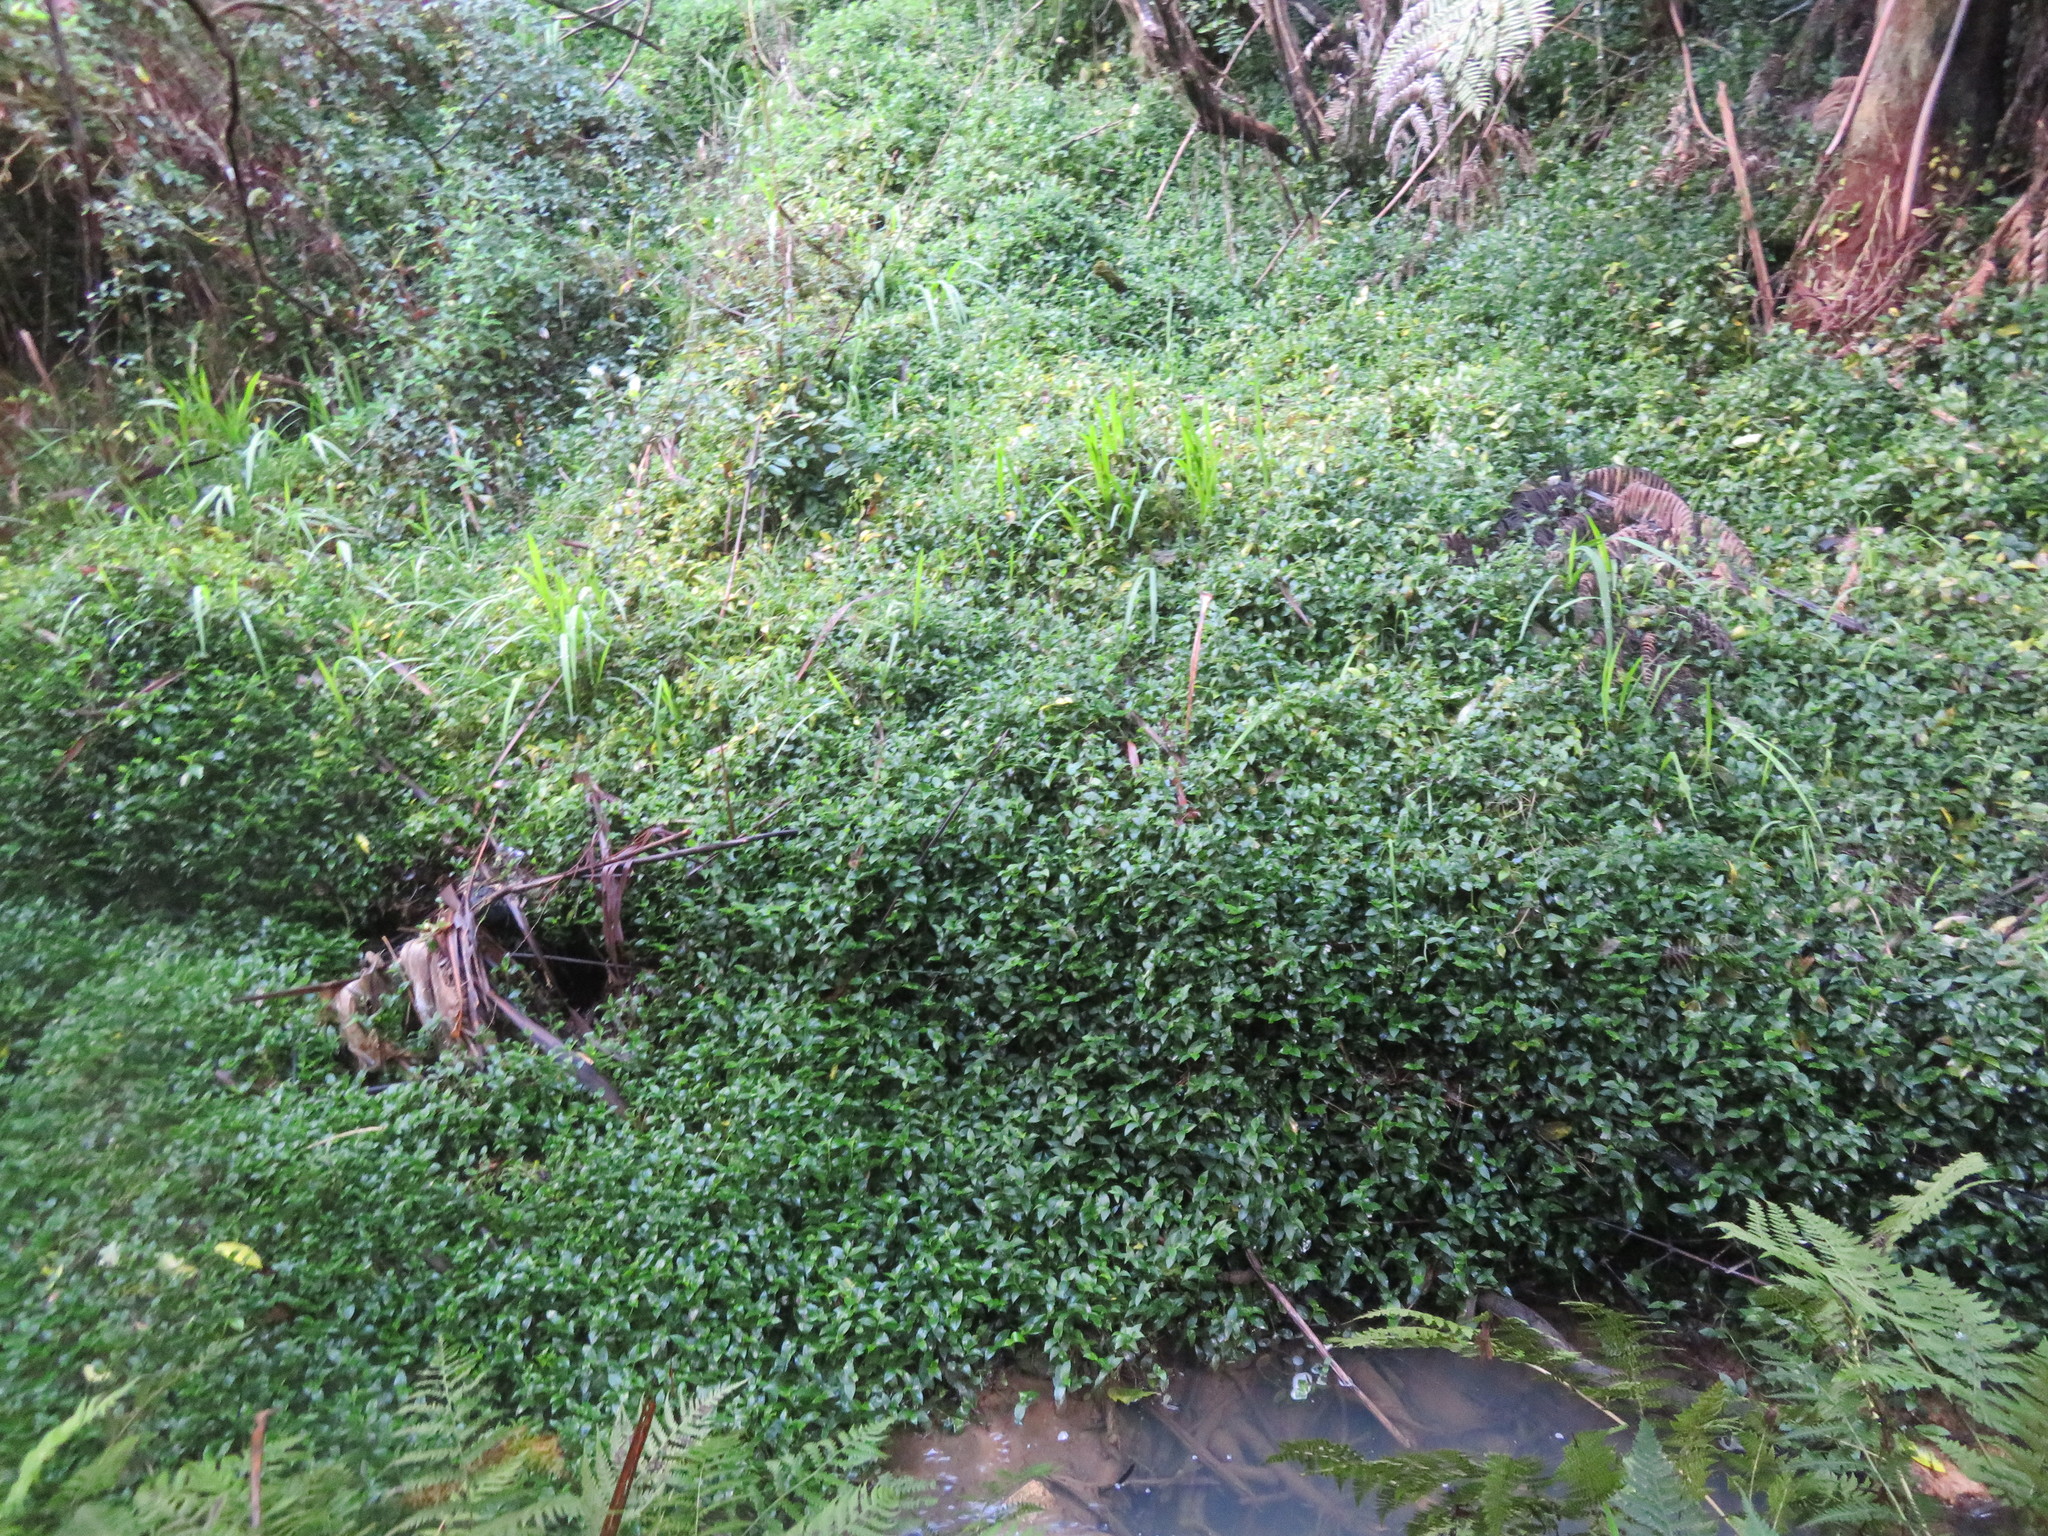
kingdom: Plantae
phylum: Tracheophyta
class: Liliopsida
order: Commelinales
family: Commelinaceae
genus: Tradescantia
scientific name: Tradescantia fluminensis
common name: Wandering-jew
